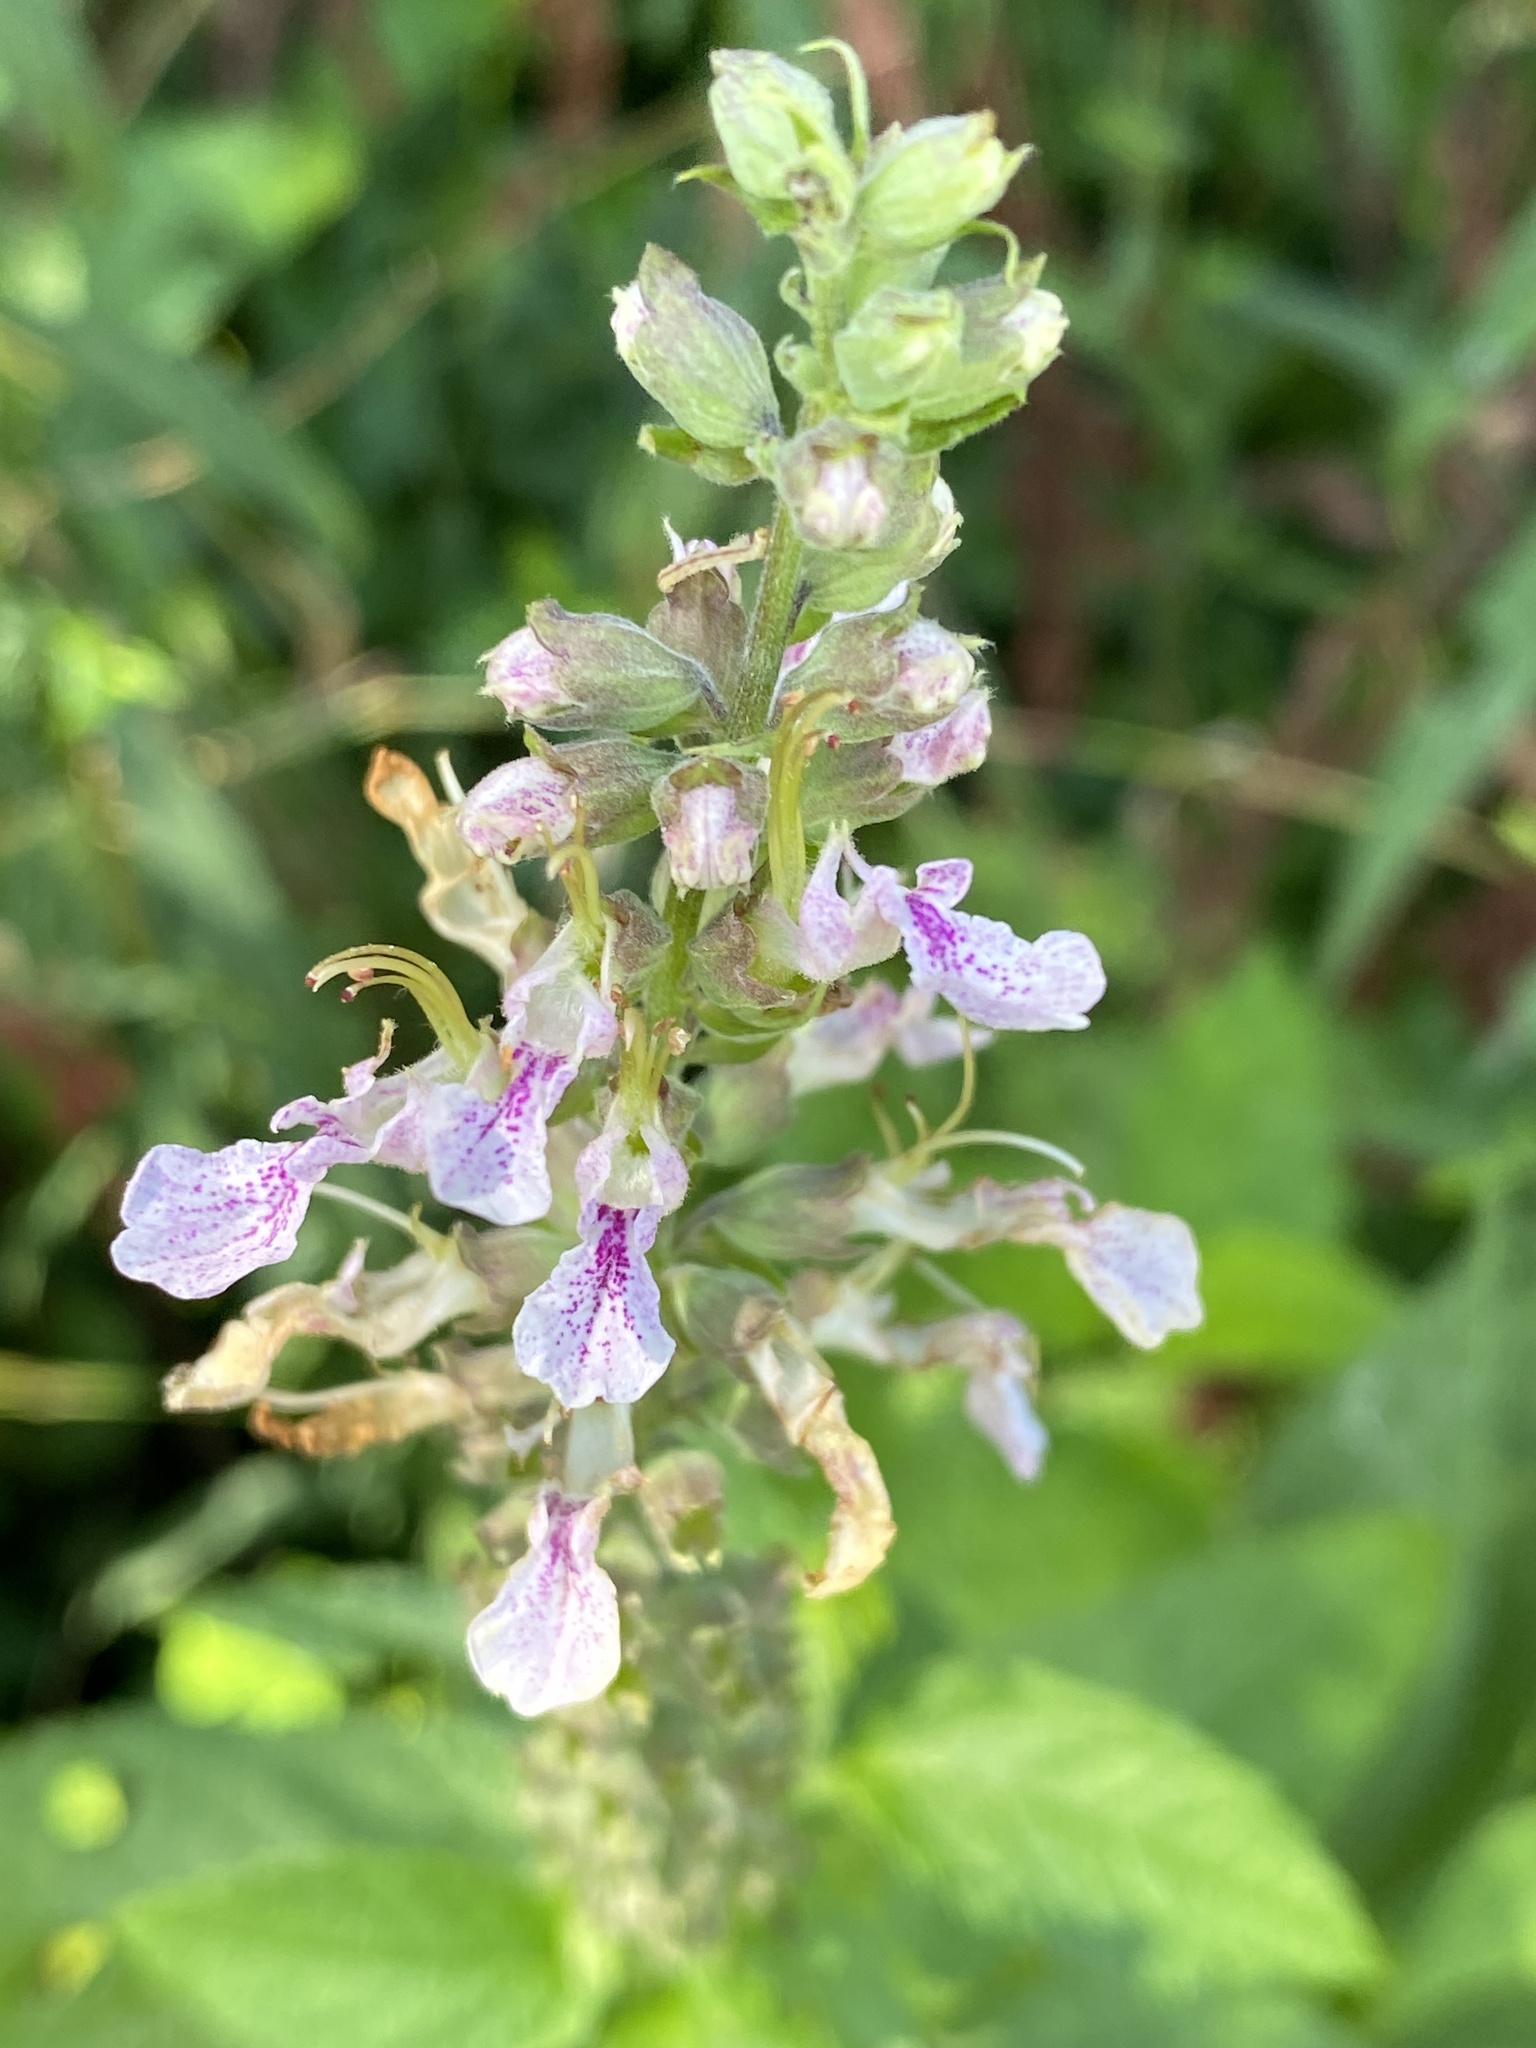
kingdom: Plantae
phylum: Tracheophyta
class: Magnoliopsida
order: Lamiales
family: Lamiaceae
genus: Teucrium
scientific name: Teucrium canadense
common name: American germander
